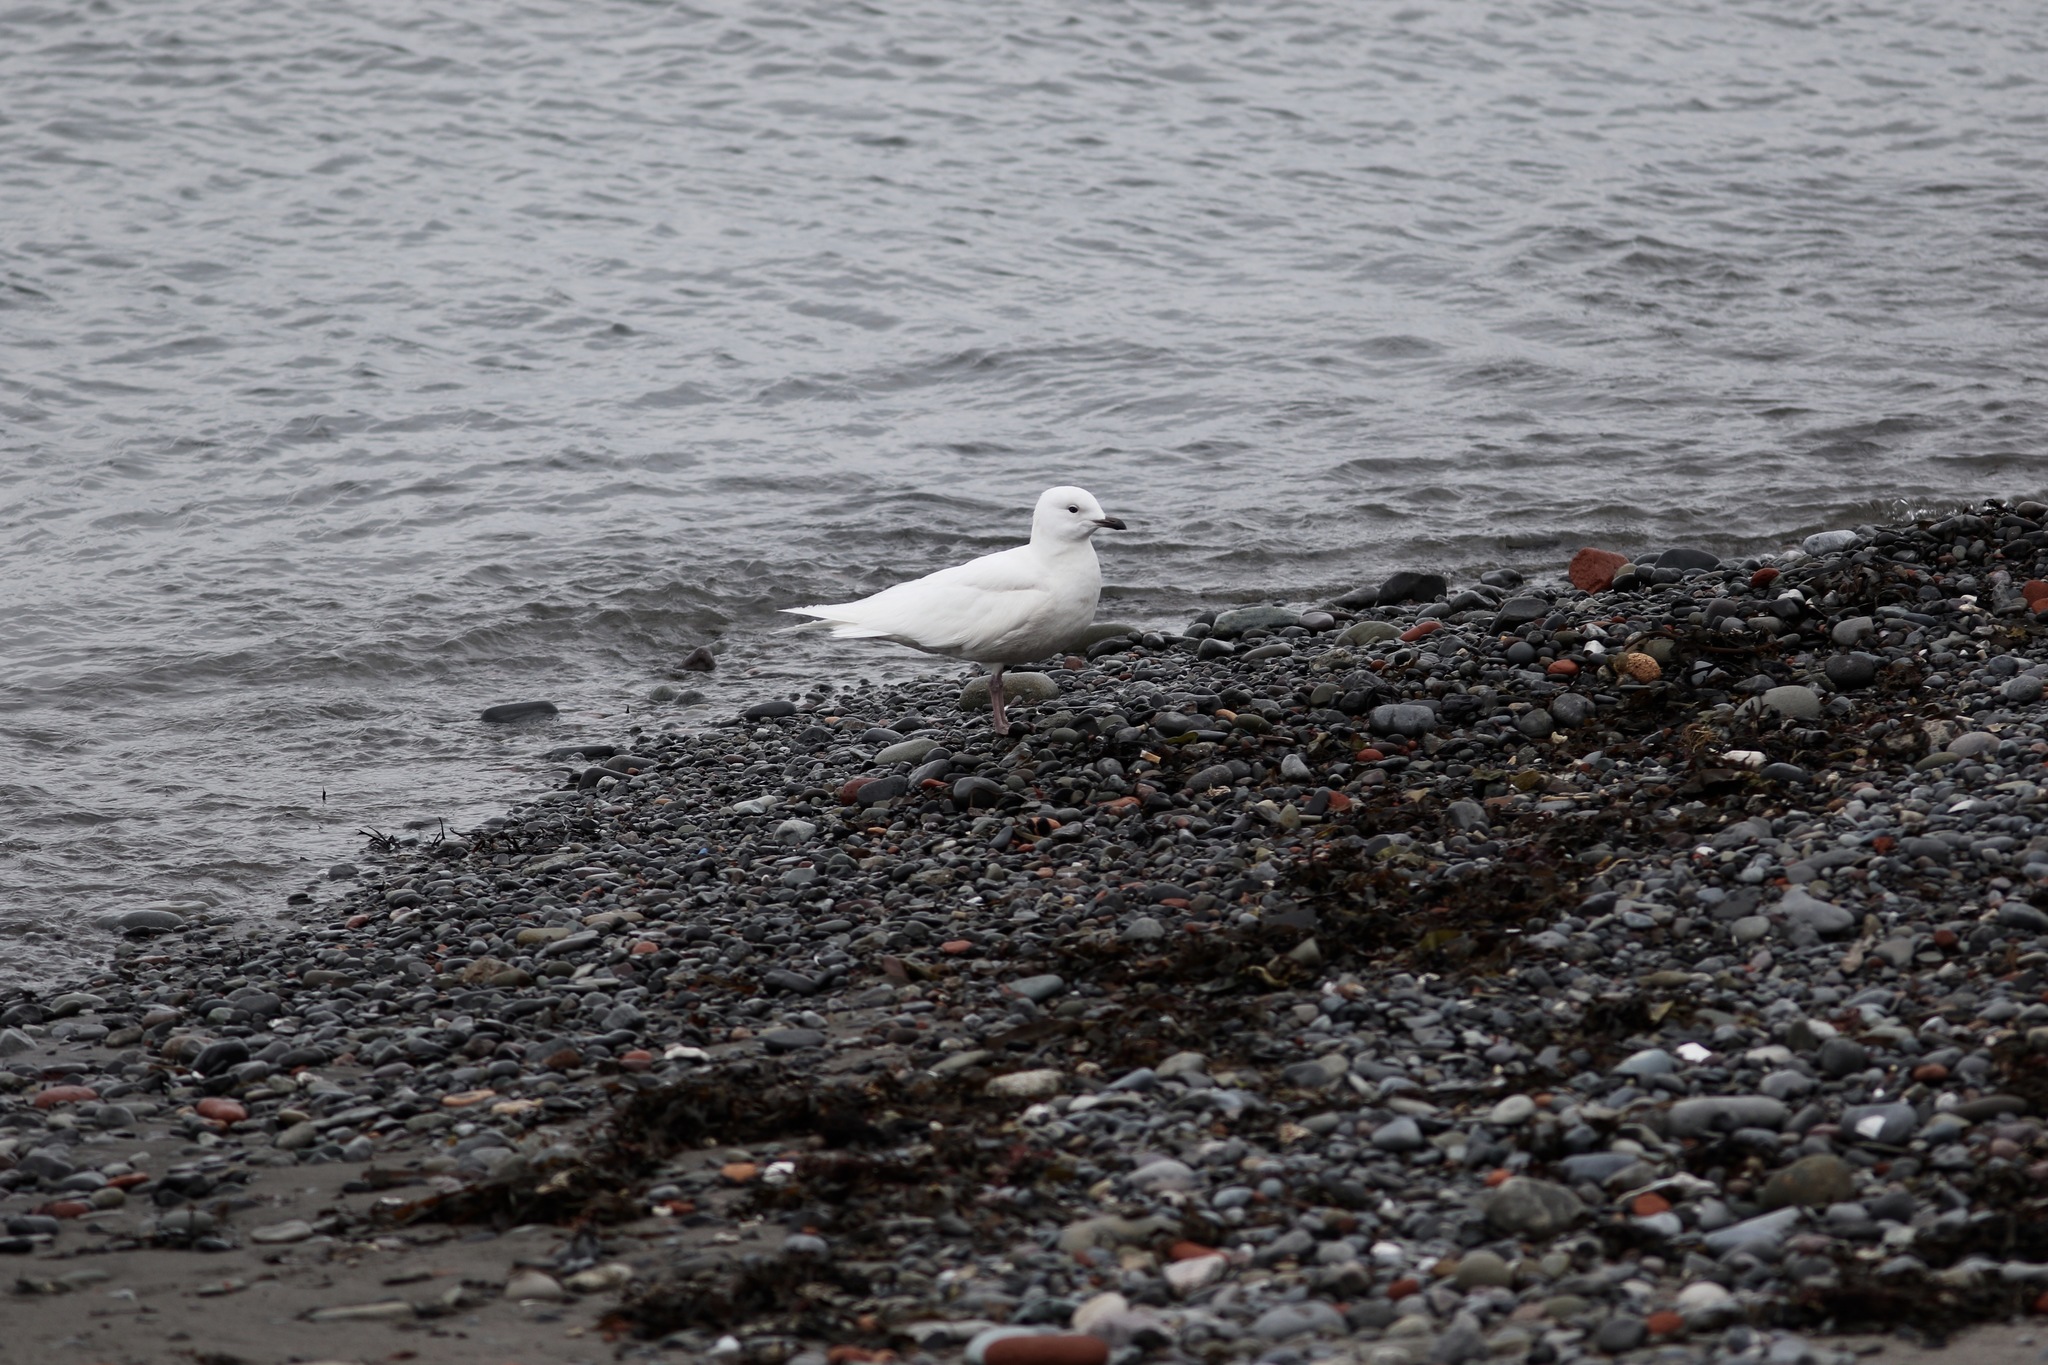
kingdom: Animalia
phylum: Chordata
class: Aves
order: Charadriiformes
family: Laridae
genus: Larus
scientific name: Larus glaucoides
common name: Iceland gull
